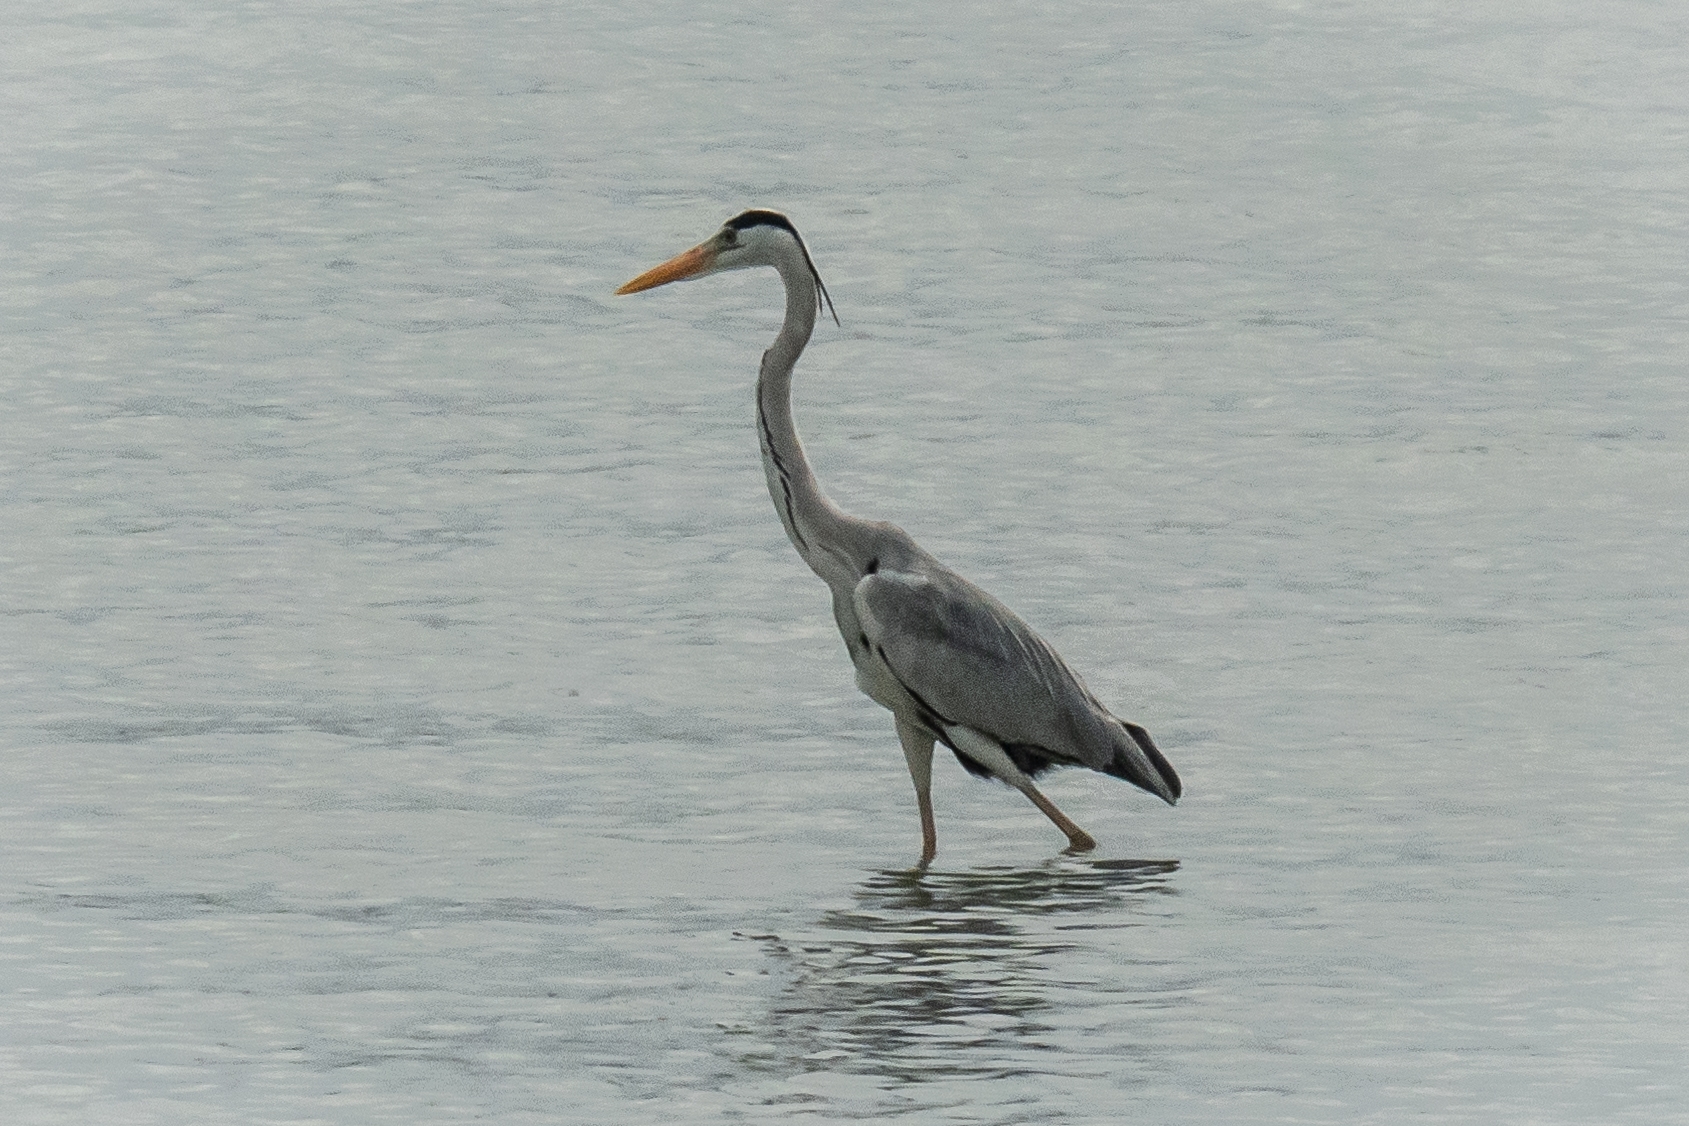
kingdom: Animalia
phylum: Chordata
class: Aves
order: Pelecaniformes
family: Ardeidae
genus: Ardea
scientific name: Ardea cinerea
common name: Grey heron
